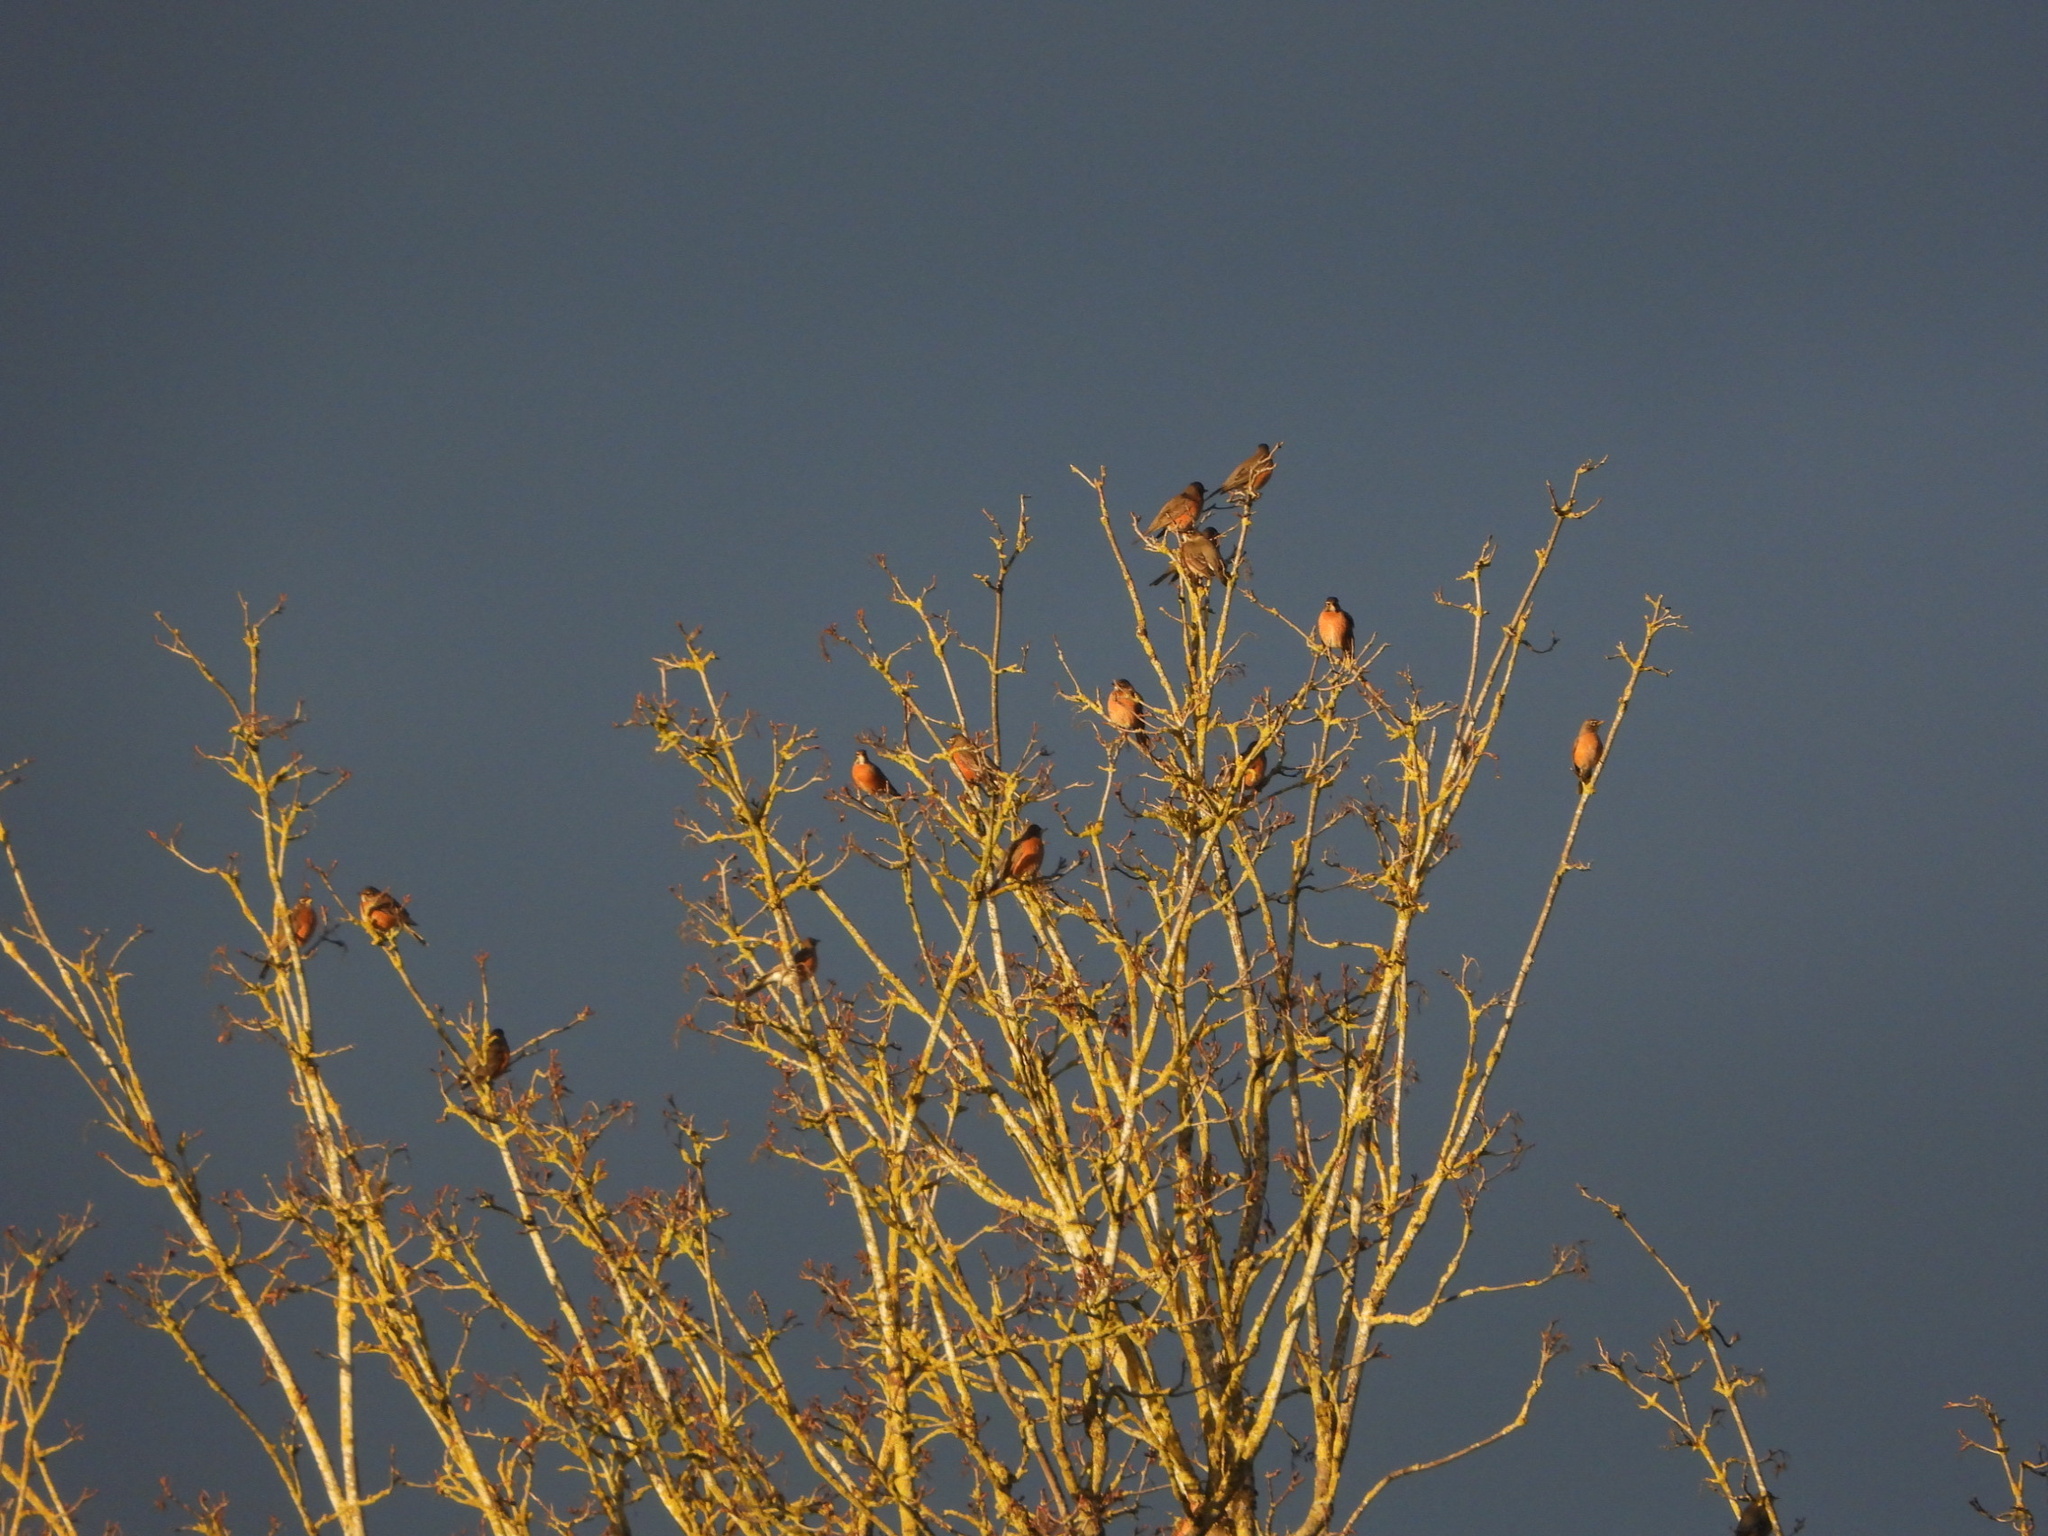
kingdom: Animalia
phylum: Chordata
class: Aves
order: Passeriformes
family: Turdidae
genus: Turdus
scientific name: Turdus migratorius
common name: American robin
